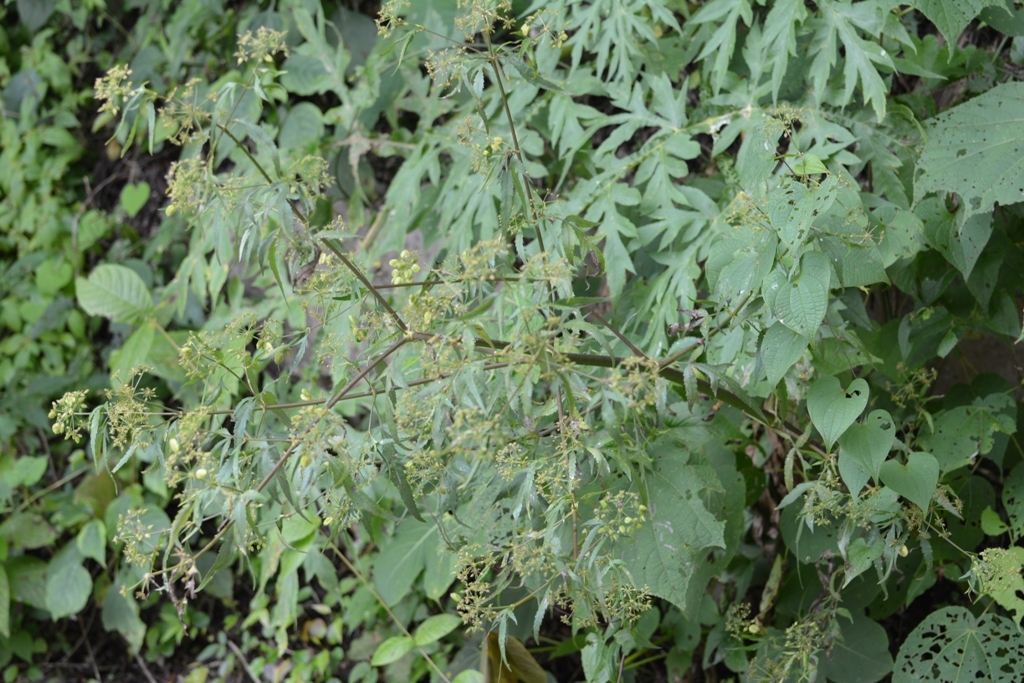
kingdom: Plantae
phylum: Tracheophyta
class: Magnoliopsida
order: Apiales
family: Apiaceae
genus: Rhodosciadium
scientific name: Rhodosciadium diffusum
